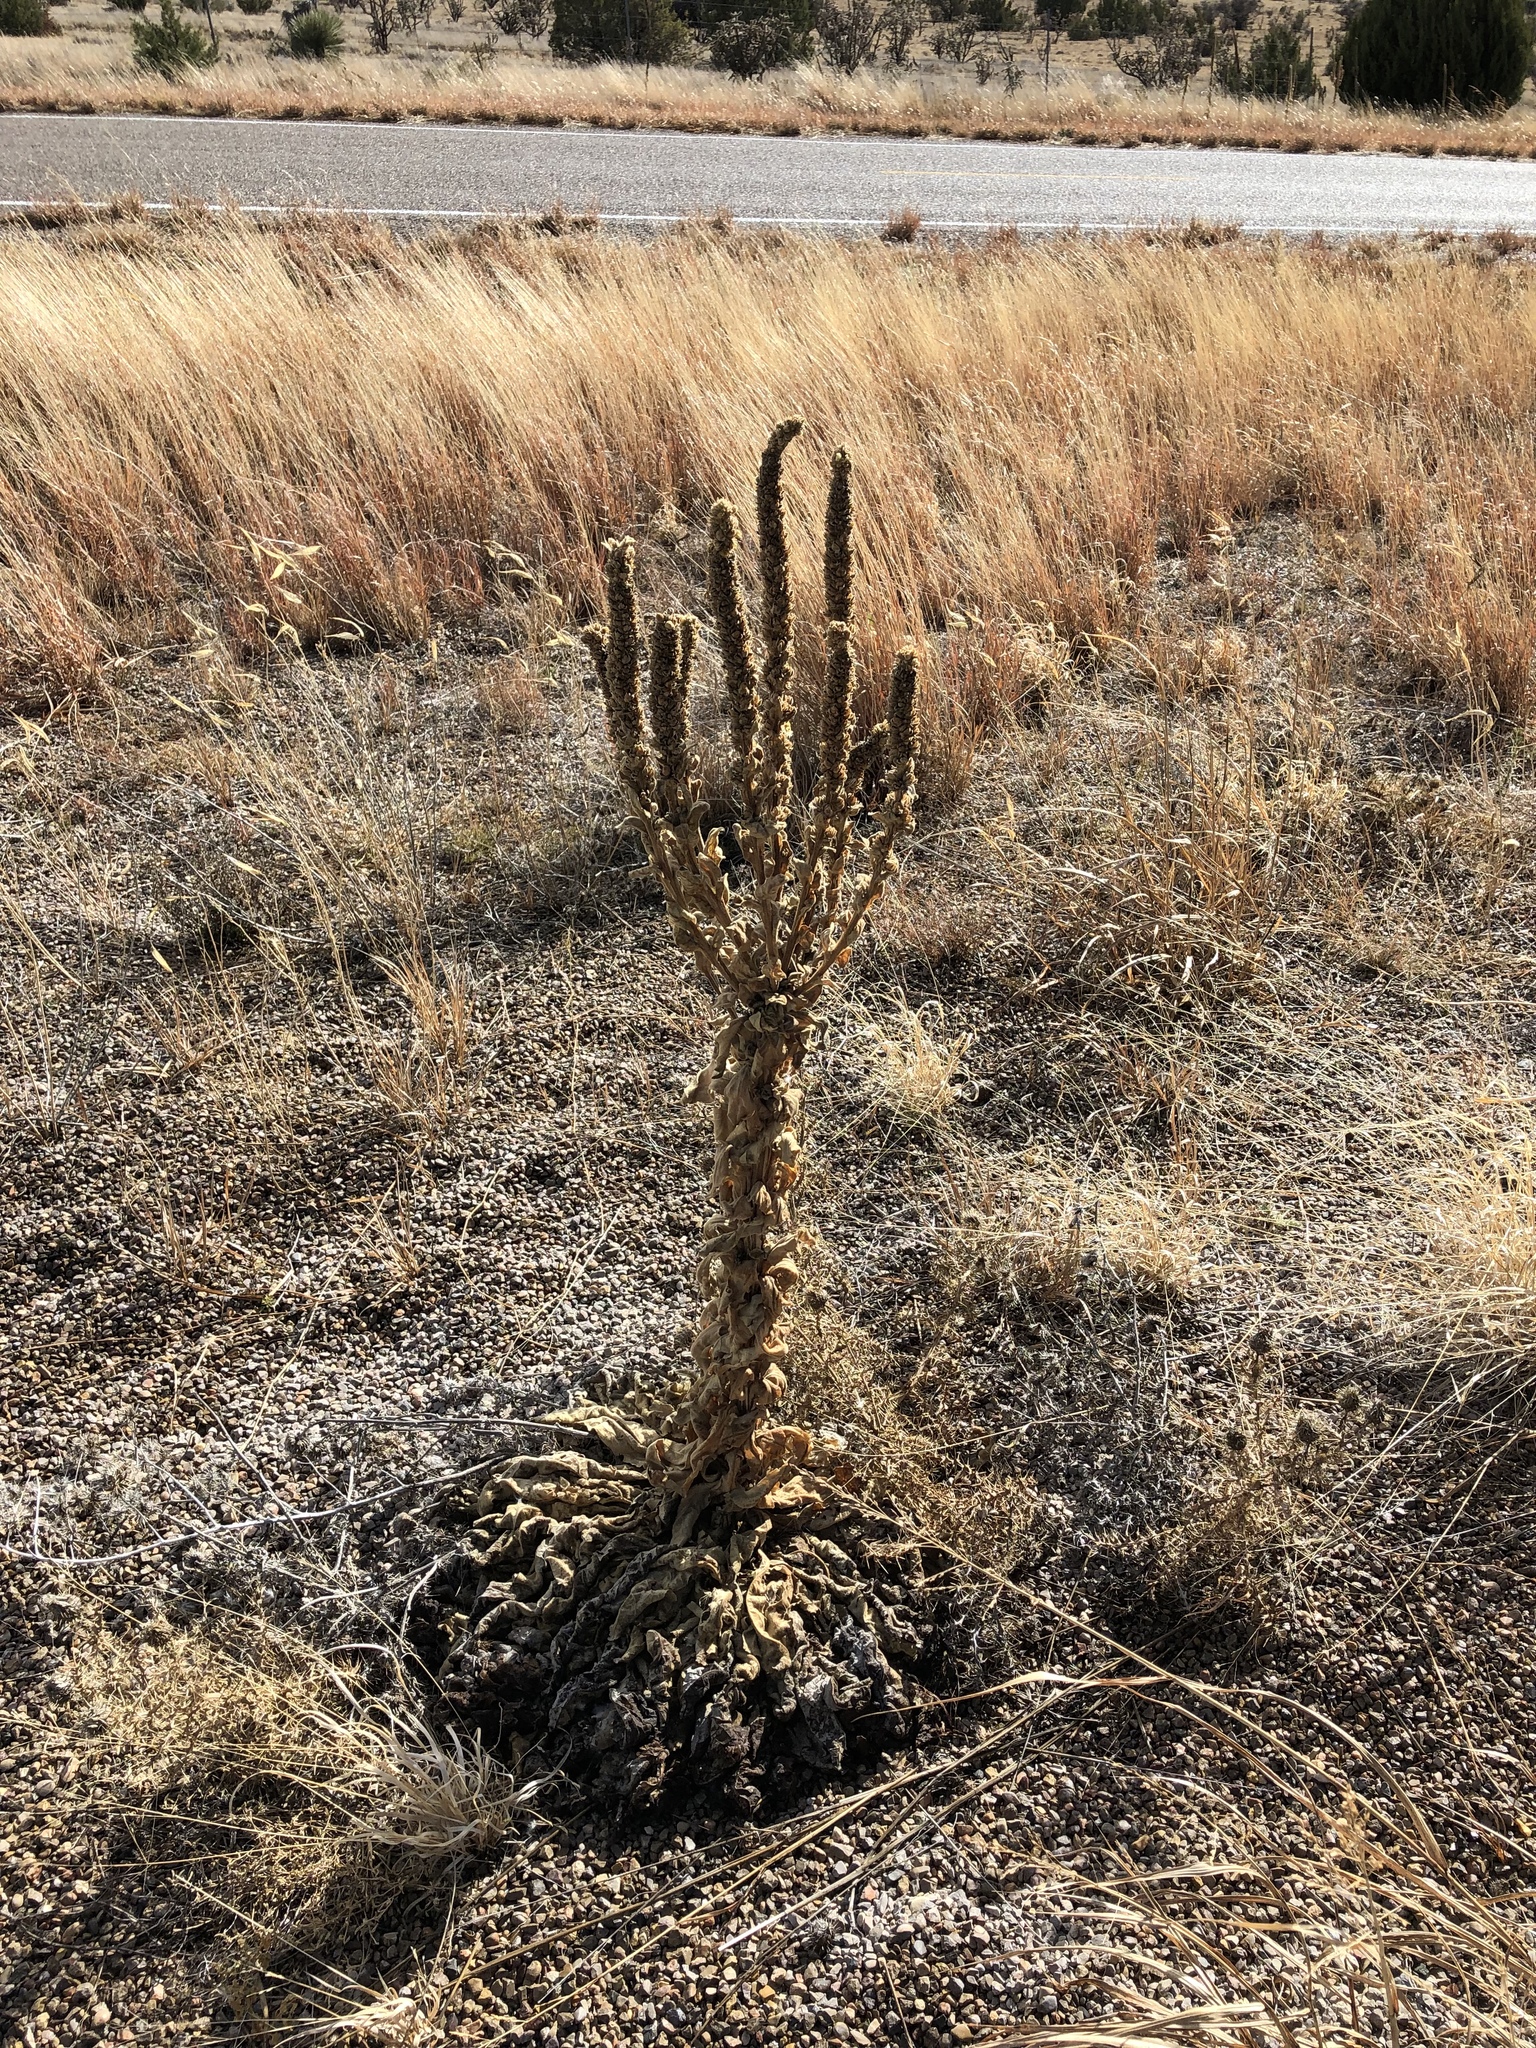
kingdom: Plantae
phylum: Tracheophyta
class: Magnoliopsida
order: Lamiales
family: Scrophulariaceae
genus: Verbascum
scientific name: Verbascum thapsus
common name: Common mullein
